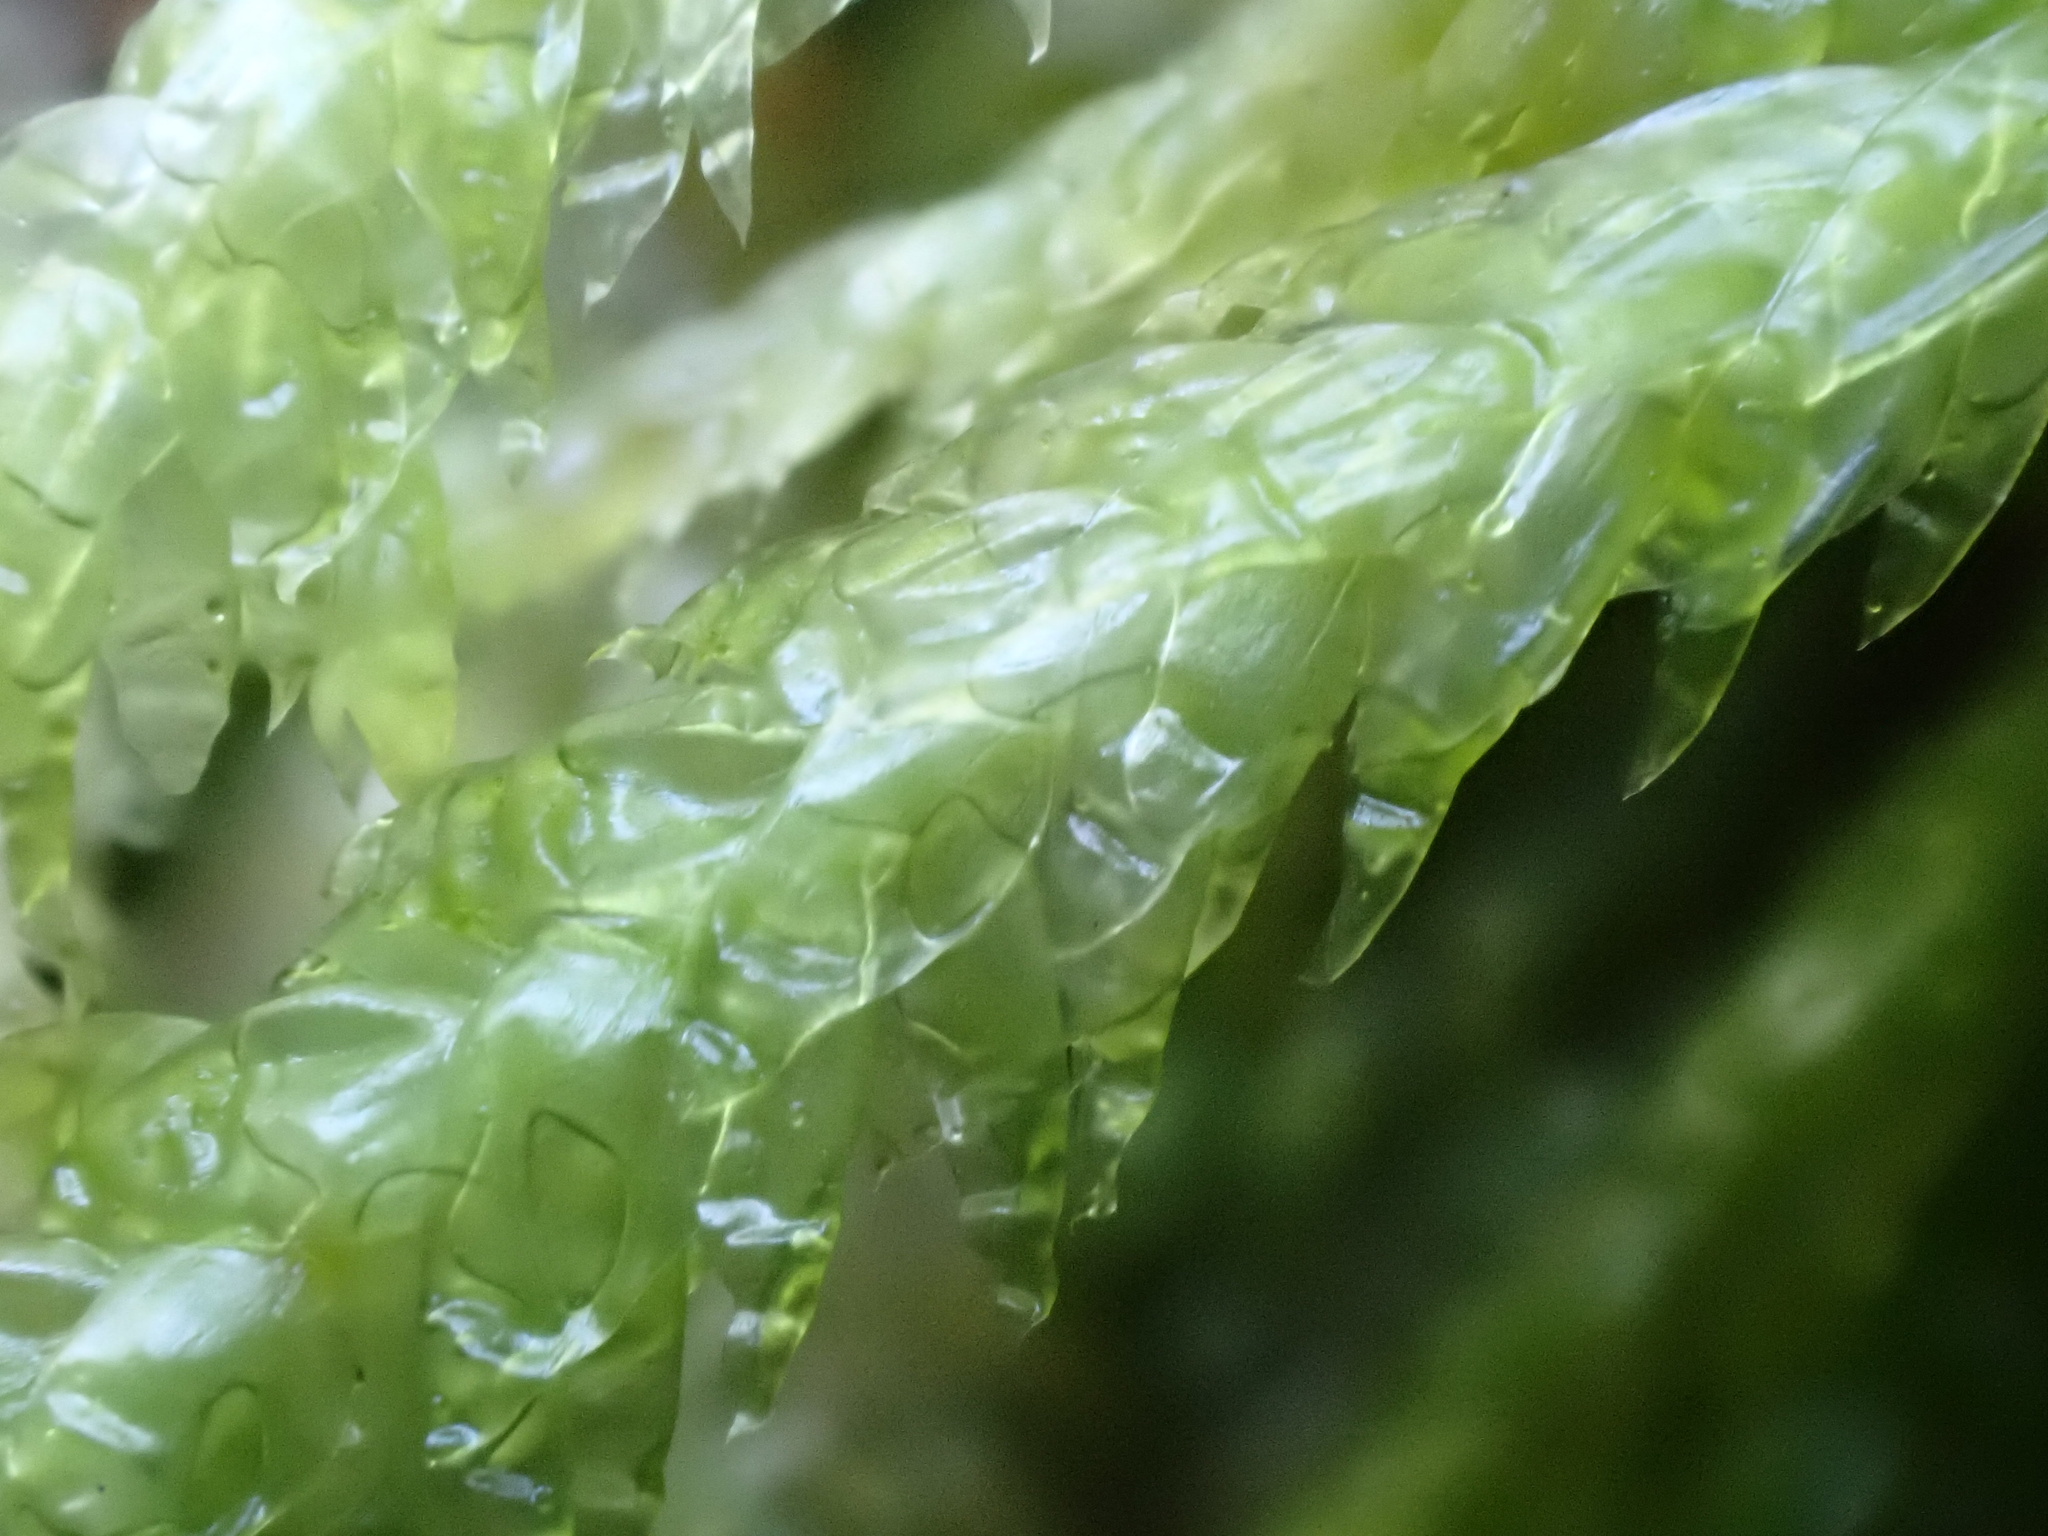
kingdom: Plantae
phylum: Bryophyta
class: Bryopsida
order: Hypnales
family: Plagiotheciaceae
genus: Plagiothecium
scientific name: Plagiothecium undulatum
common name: Waved silk-moss
